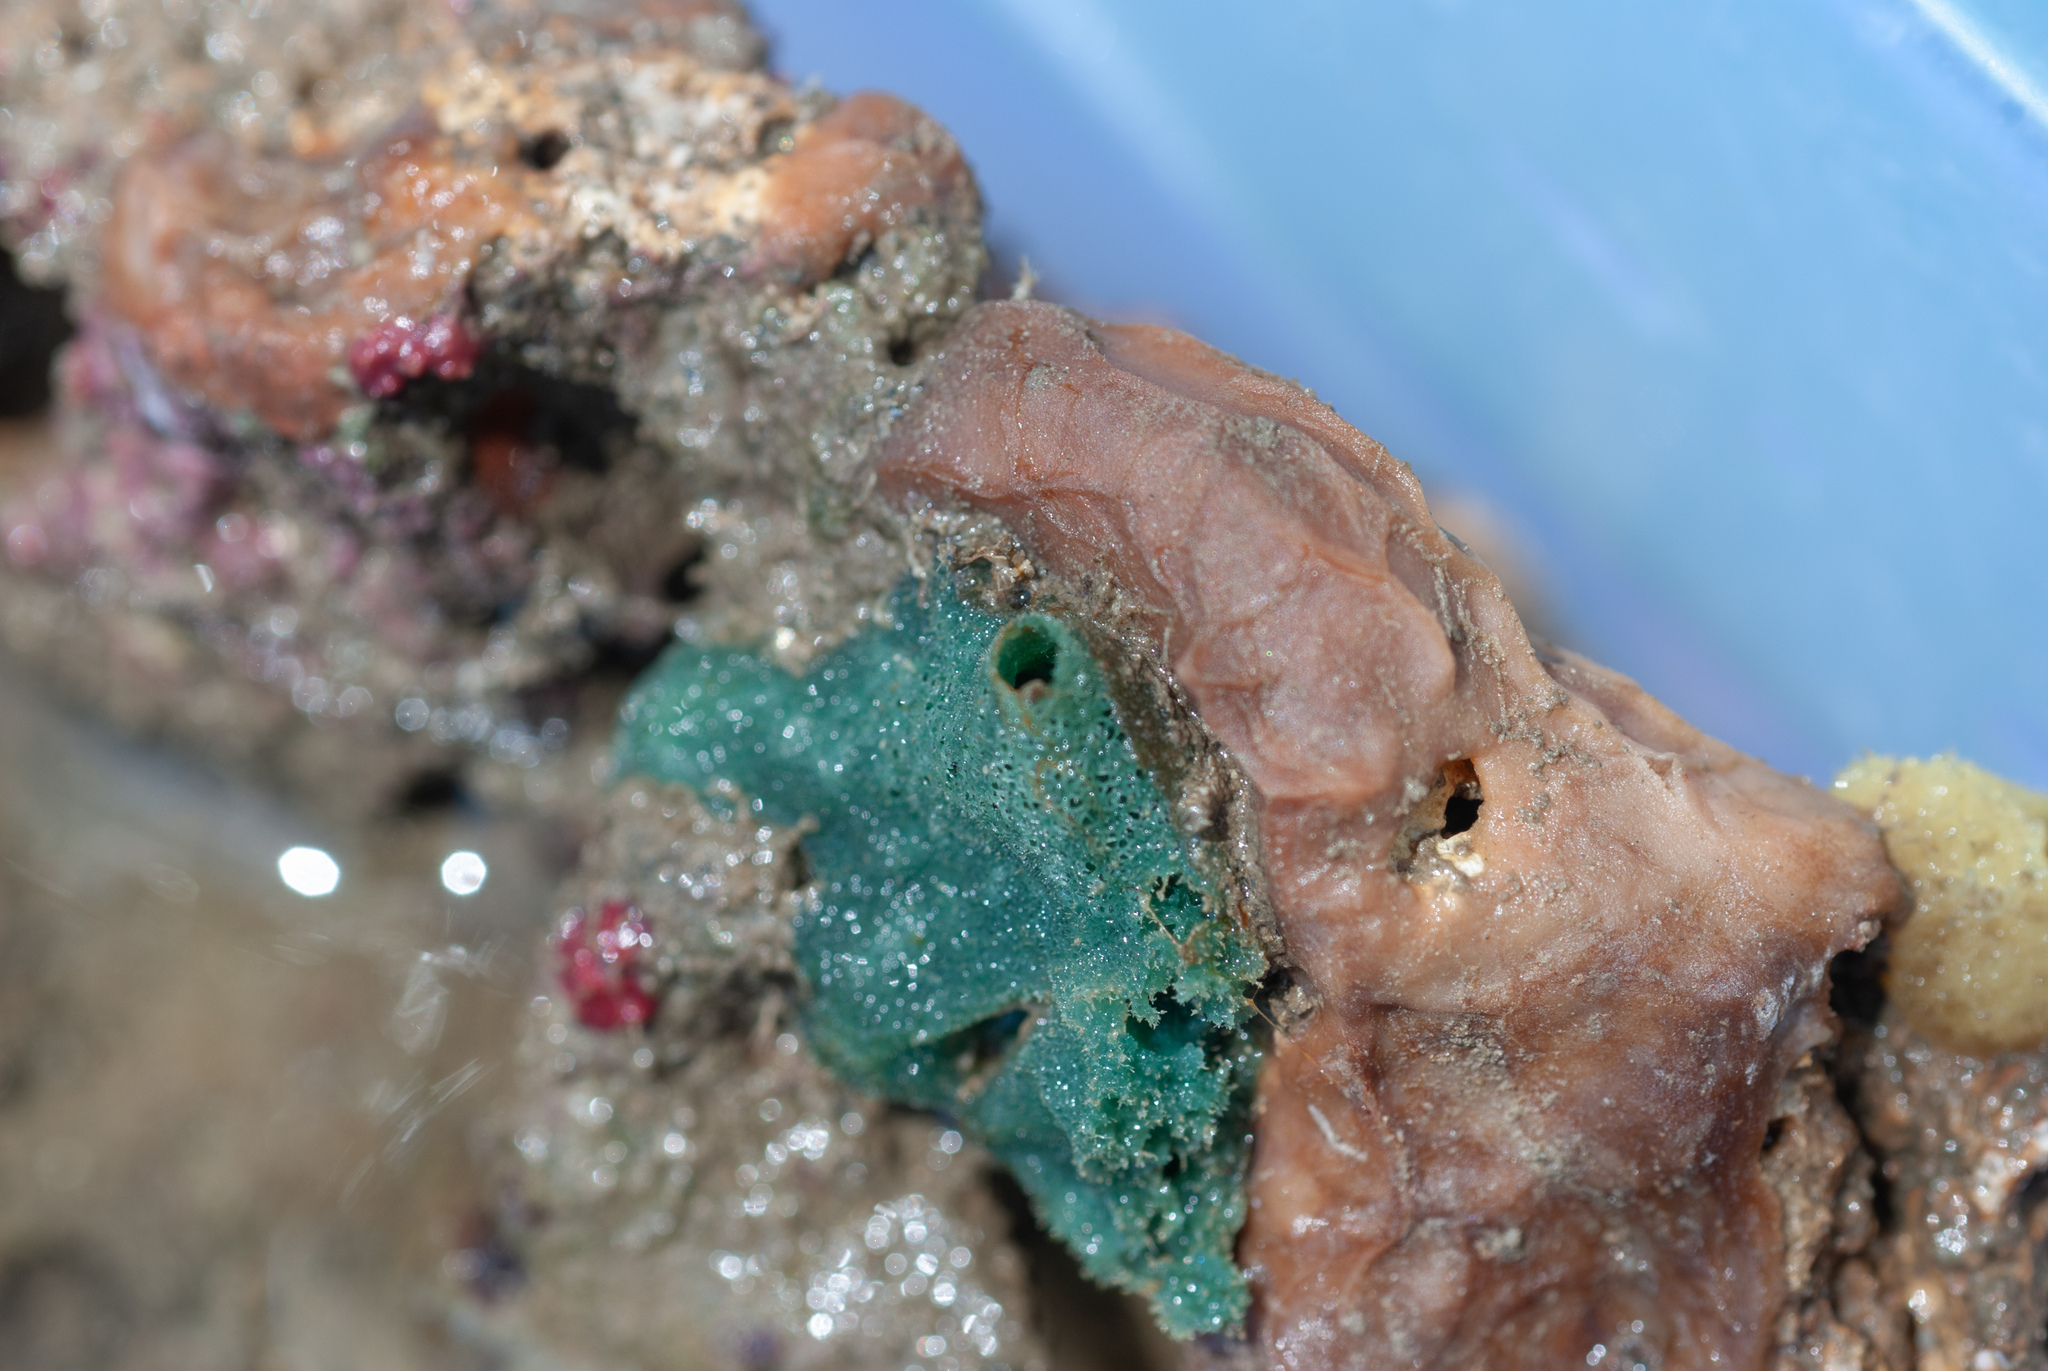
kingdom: Animalia
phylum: Porifera
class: Demospongiae
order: Clionaida
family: Placospongiidae
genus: Placospongia
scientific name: Placospongia intermedia
